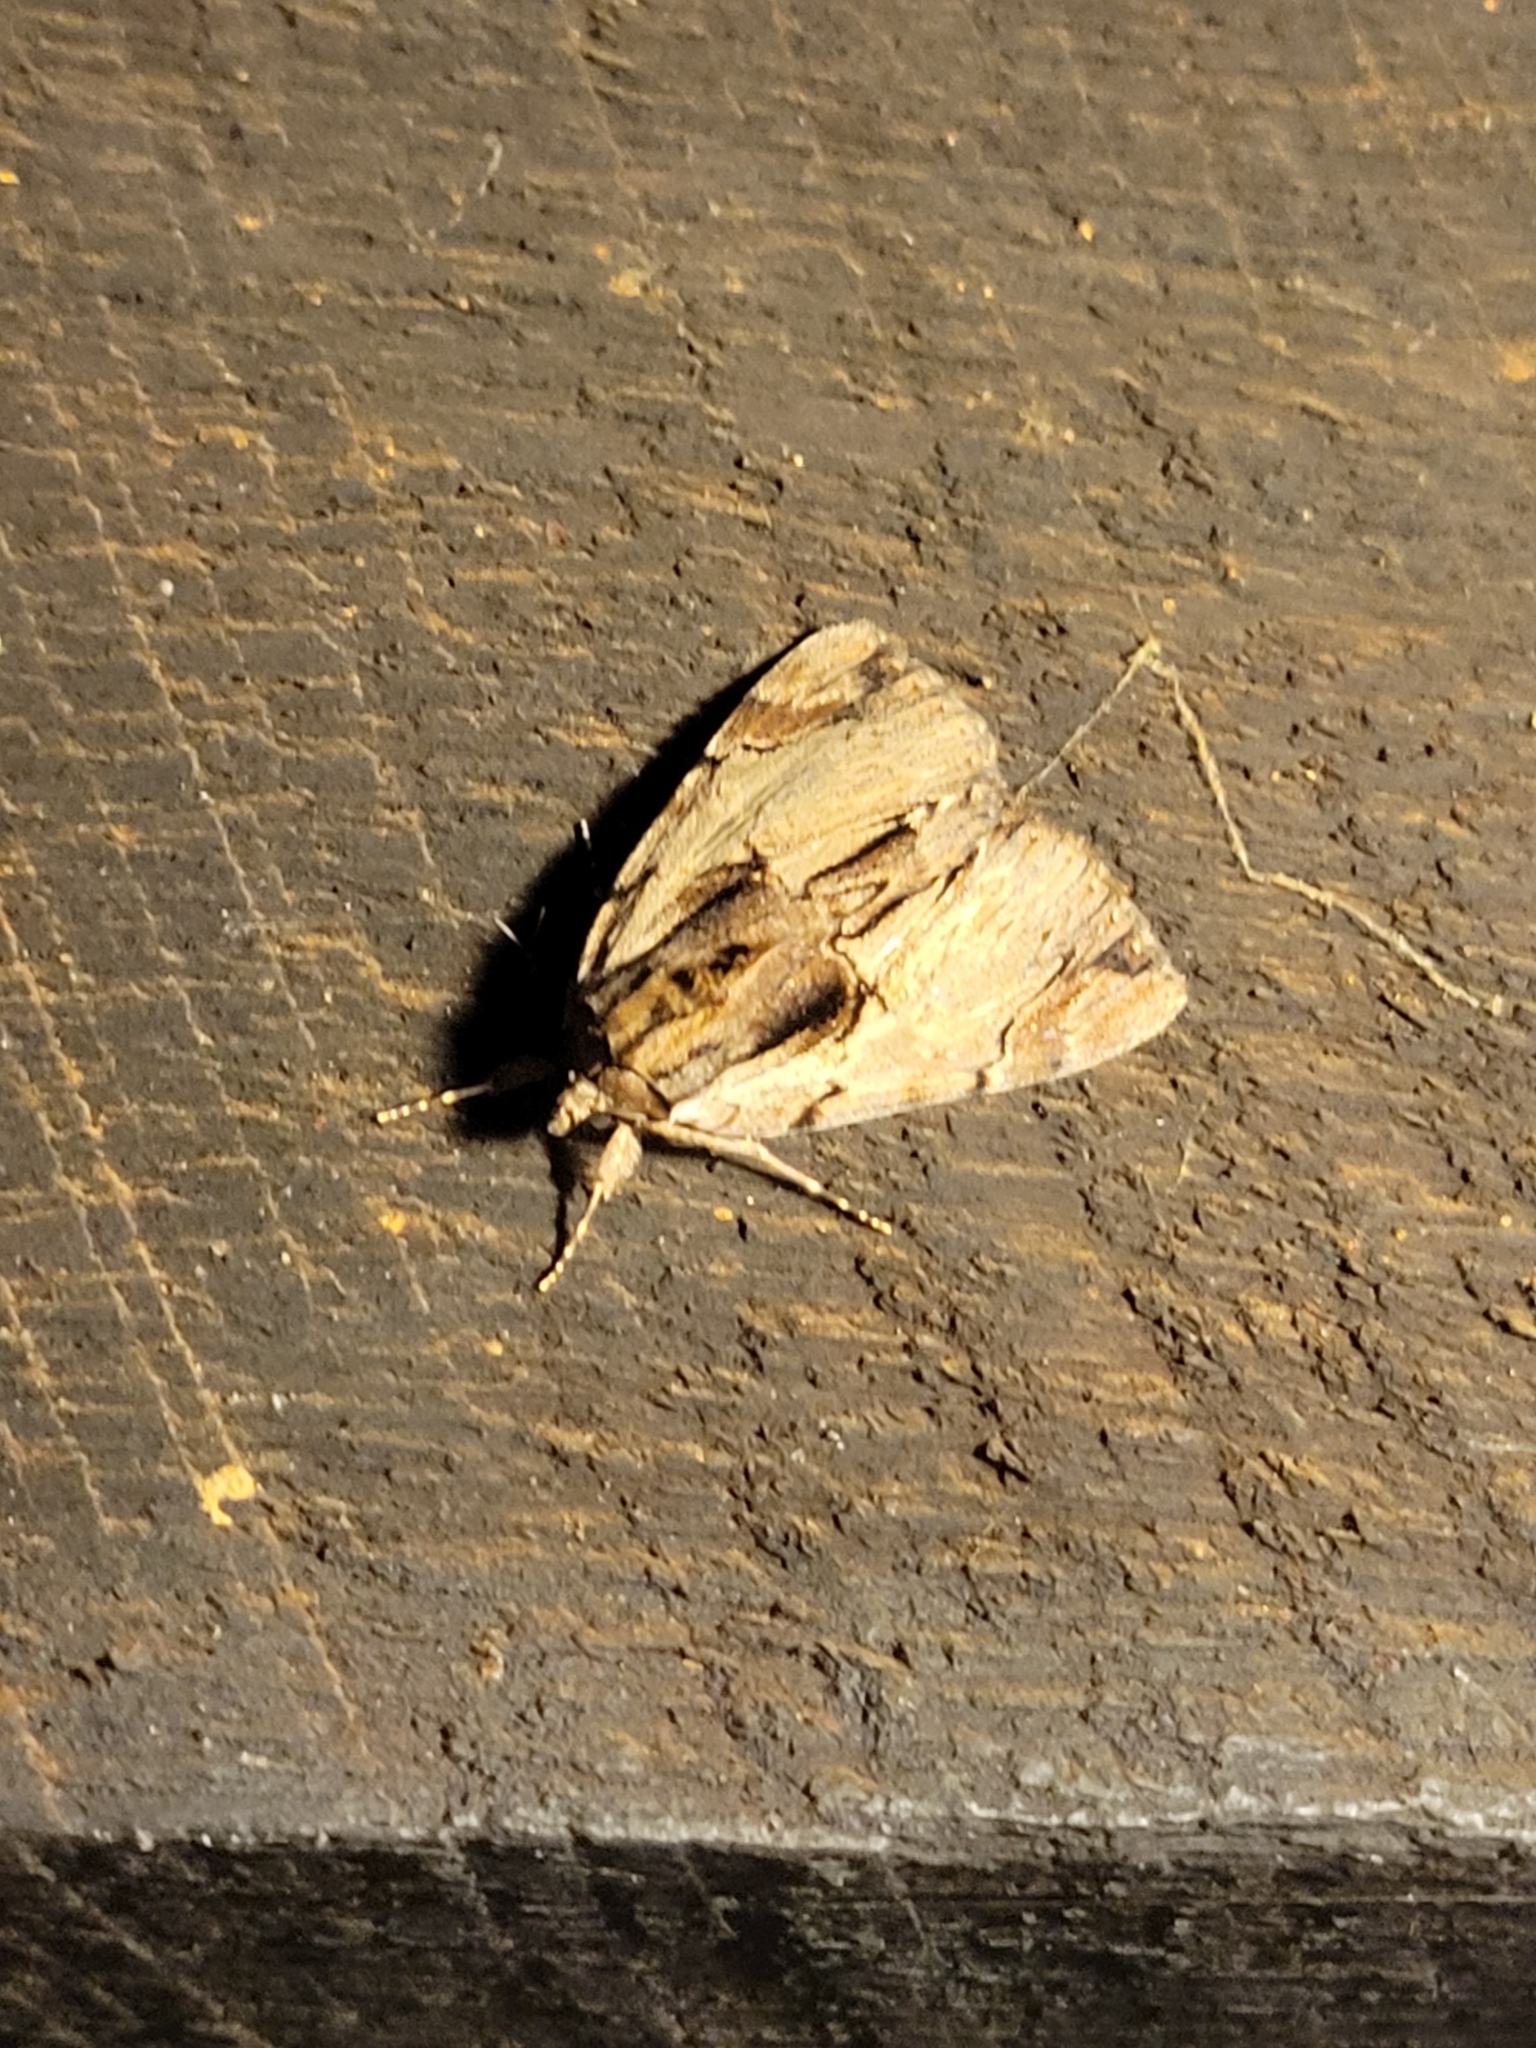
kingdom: Animalia
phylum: Arthropoda
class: Insecta
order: Lepidoptera
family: Erebidae
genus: Catocala
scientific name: Catocala ultronia
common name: Ultronia underwing
